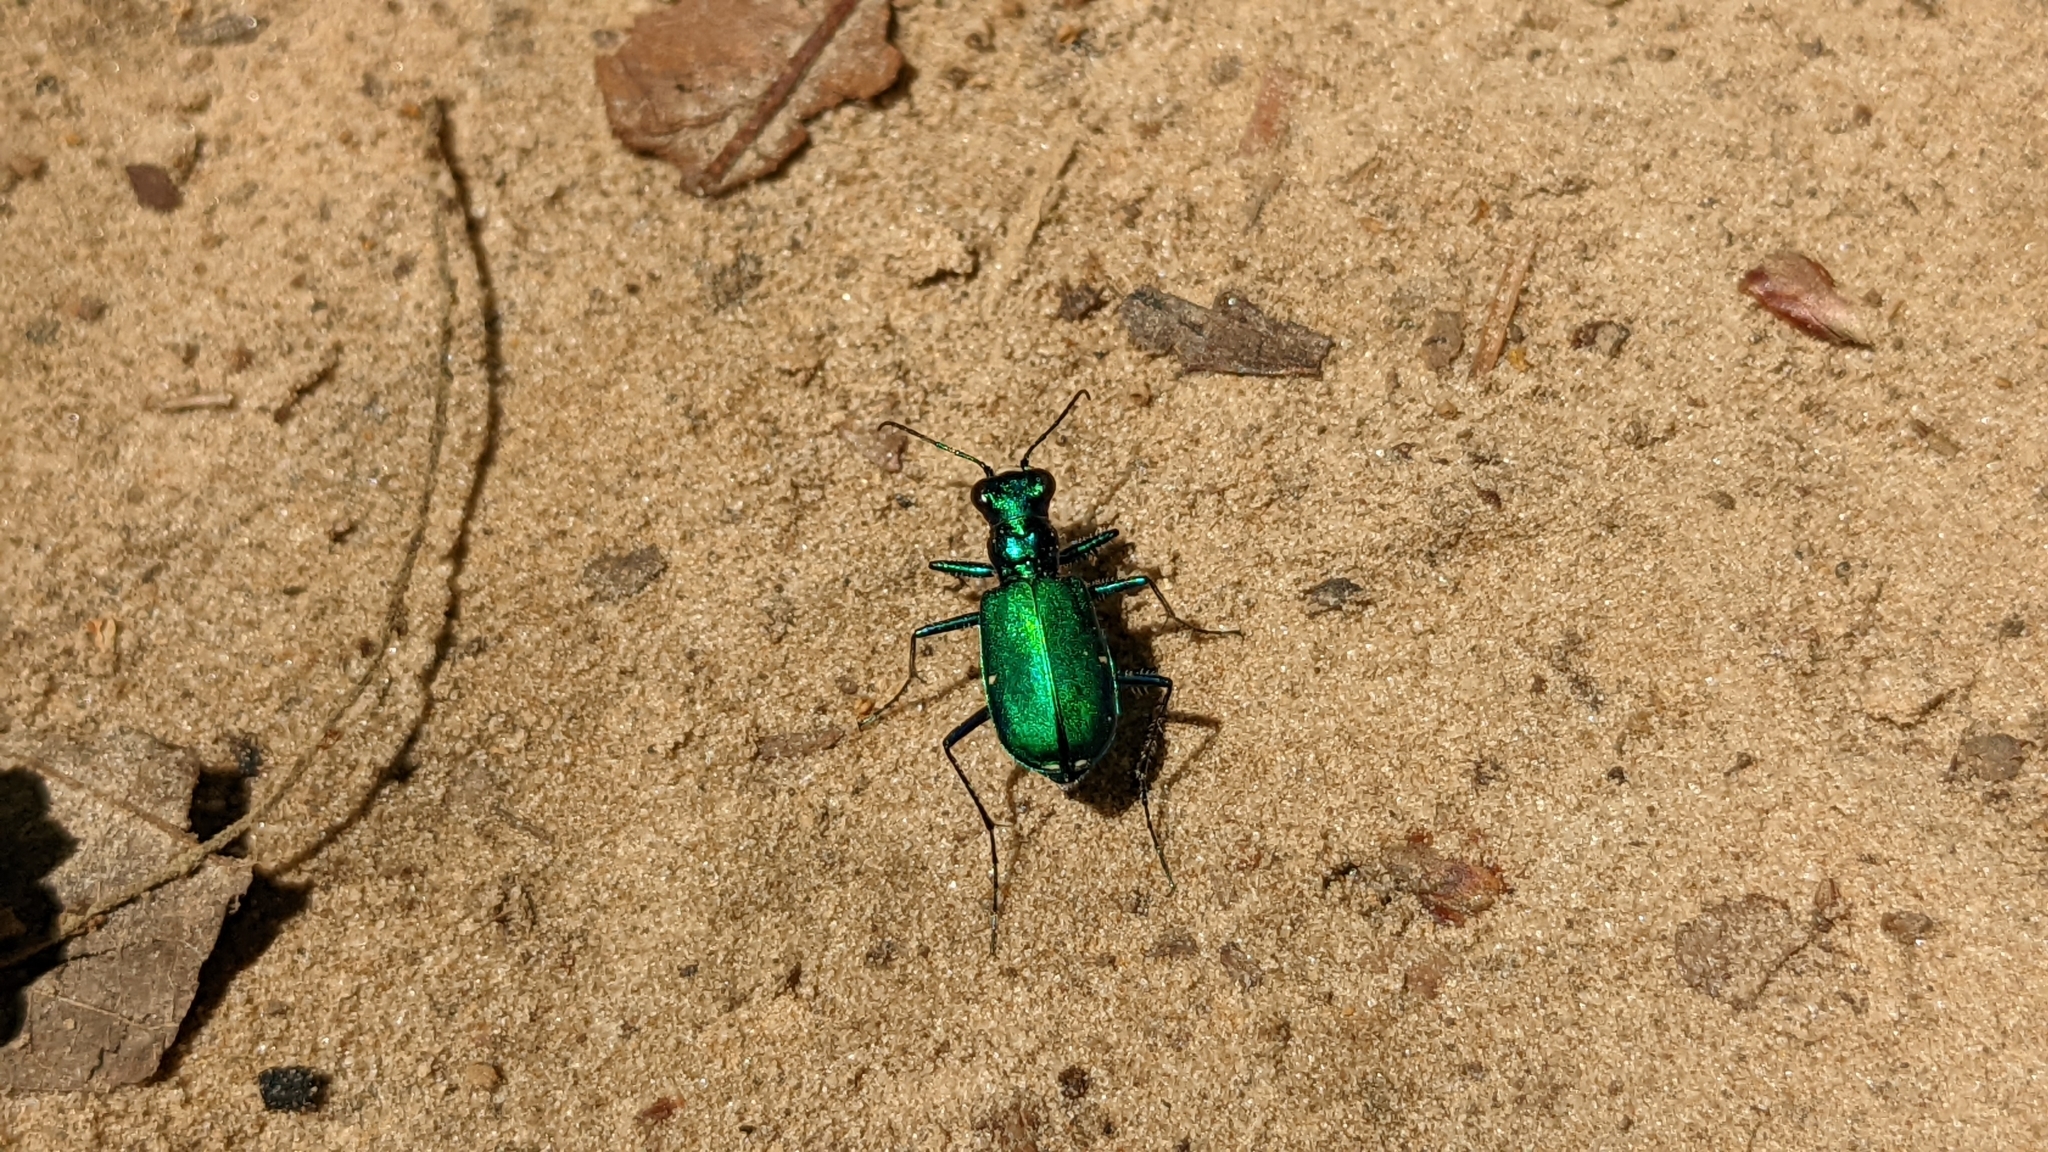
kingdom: Animalia
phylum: Arthropoda
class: Insecta
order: Coleoptera
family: Carabidae
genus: Cicindela
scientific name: Cicindela sexguttata
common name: Six-spotted tiger beetle
